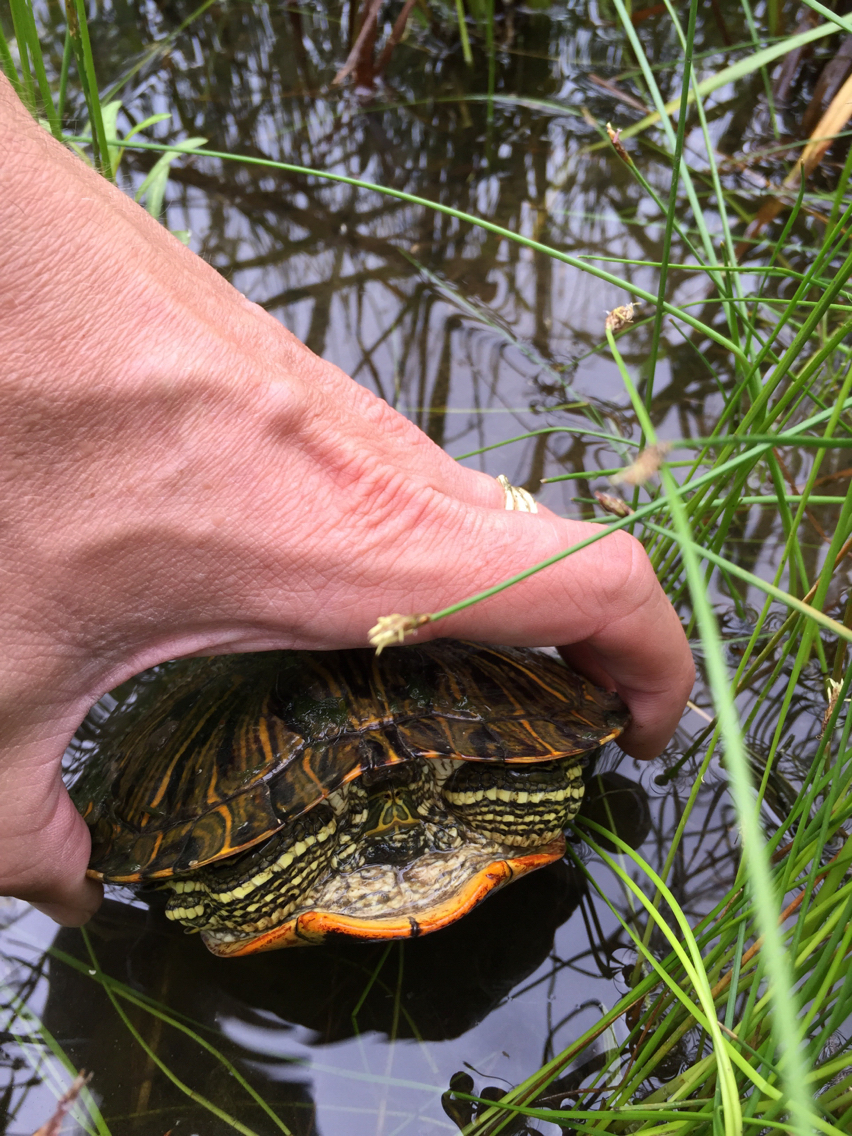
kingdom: Animalia
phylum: Chordata
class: Testudines
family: Emydidae
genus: Trachemys
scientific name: Trachemys scripta
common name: Slider
